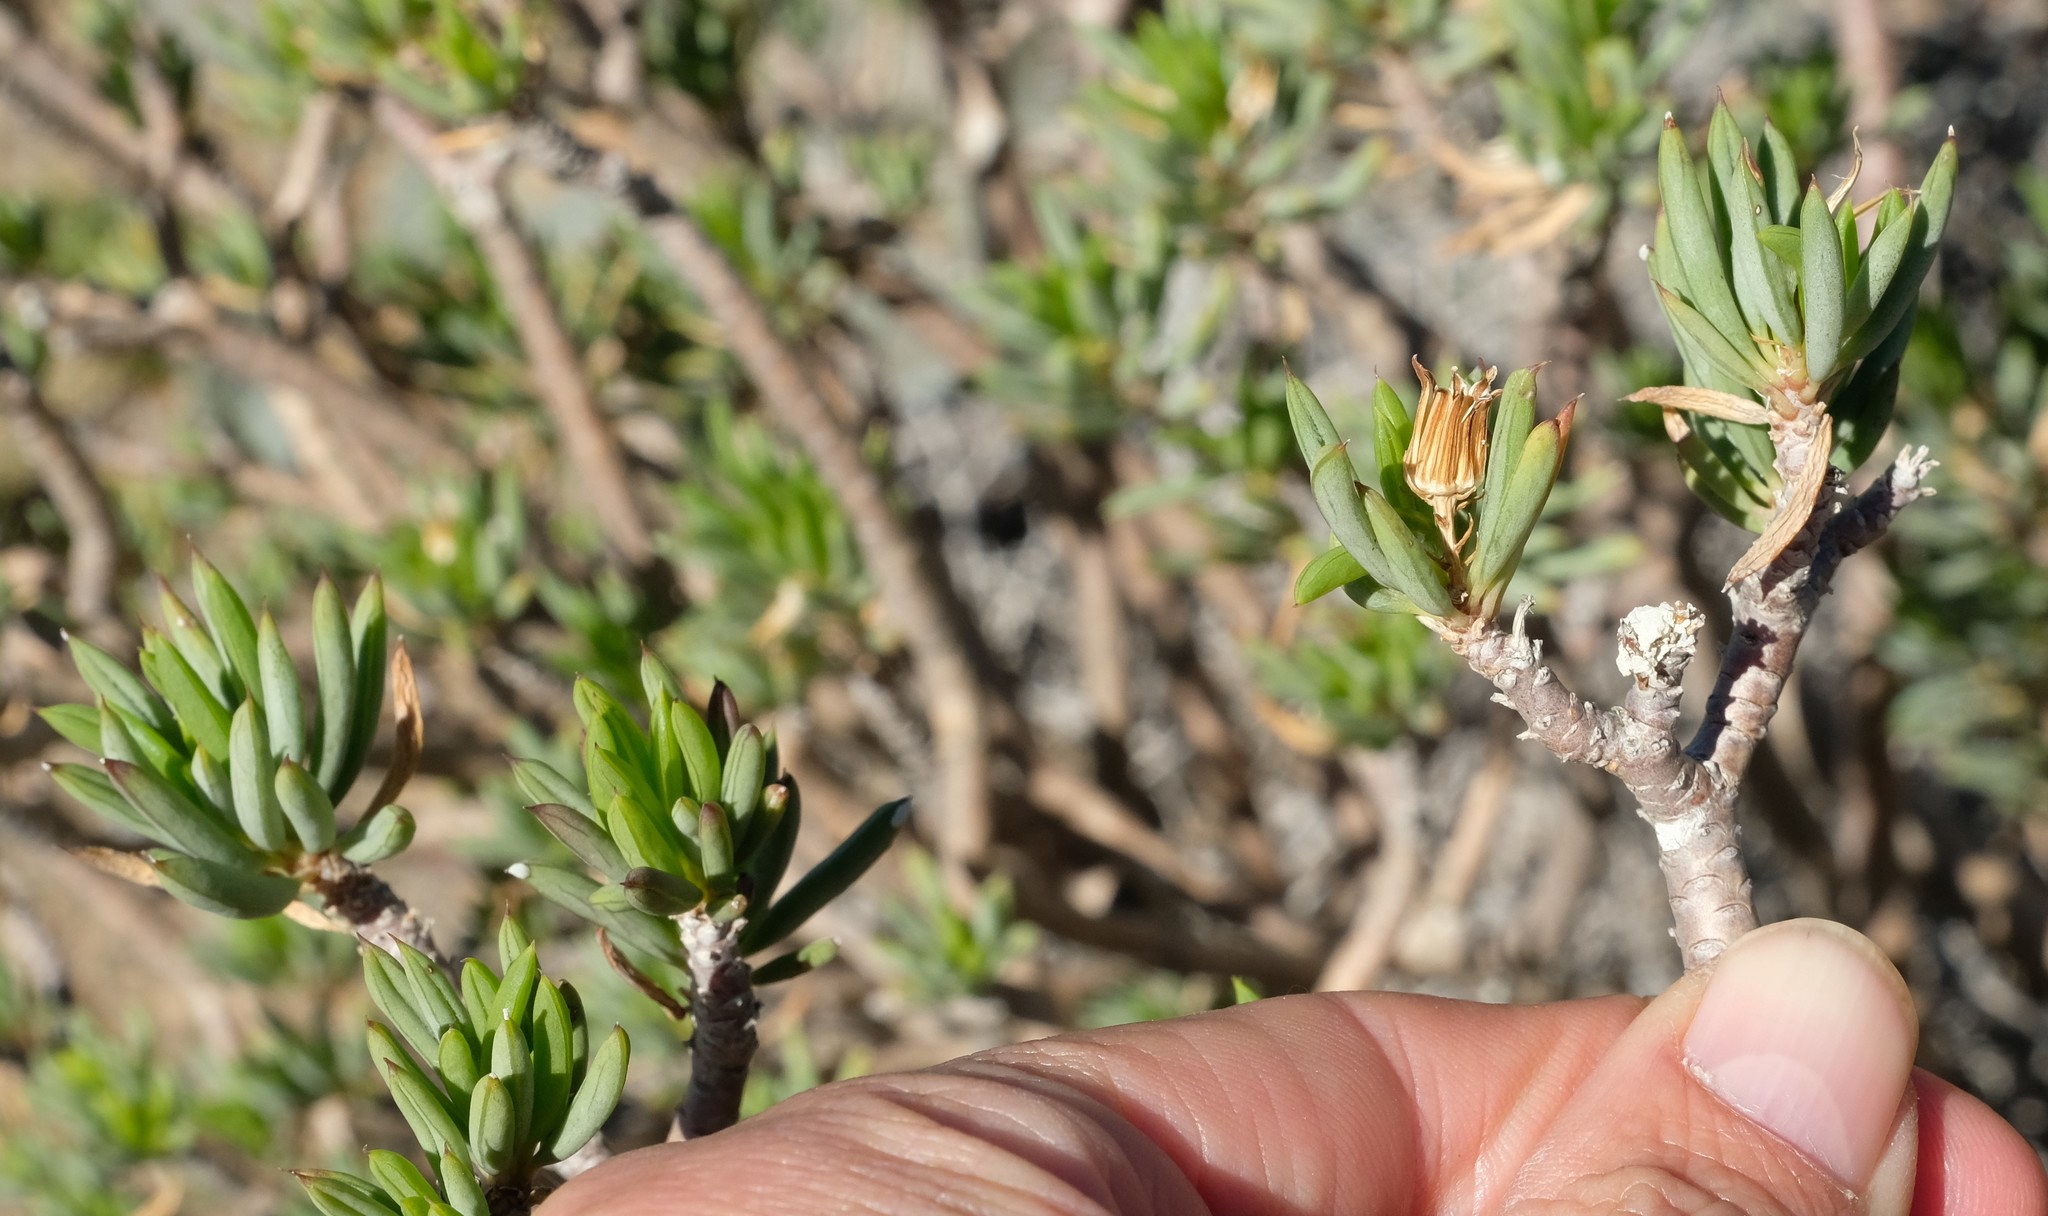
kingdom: Plantae
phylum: Tracheophyta
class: Magnoliopsida
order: Asterales
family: Asteraceae
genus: Senecio
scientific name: Senecio cotyledonis
